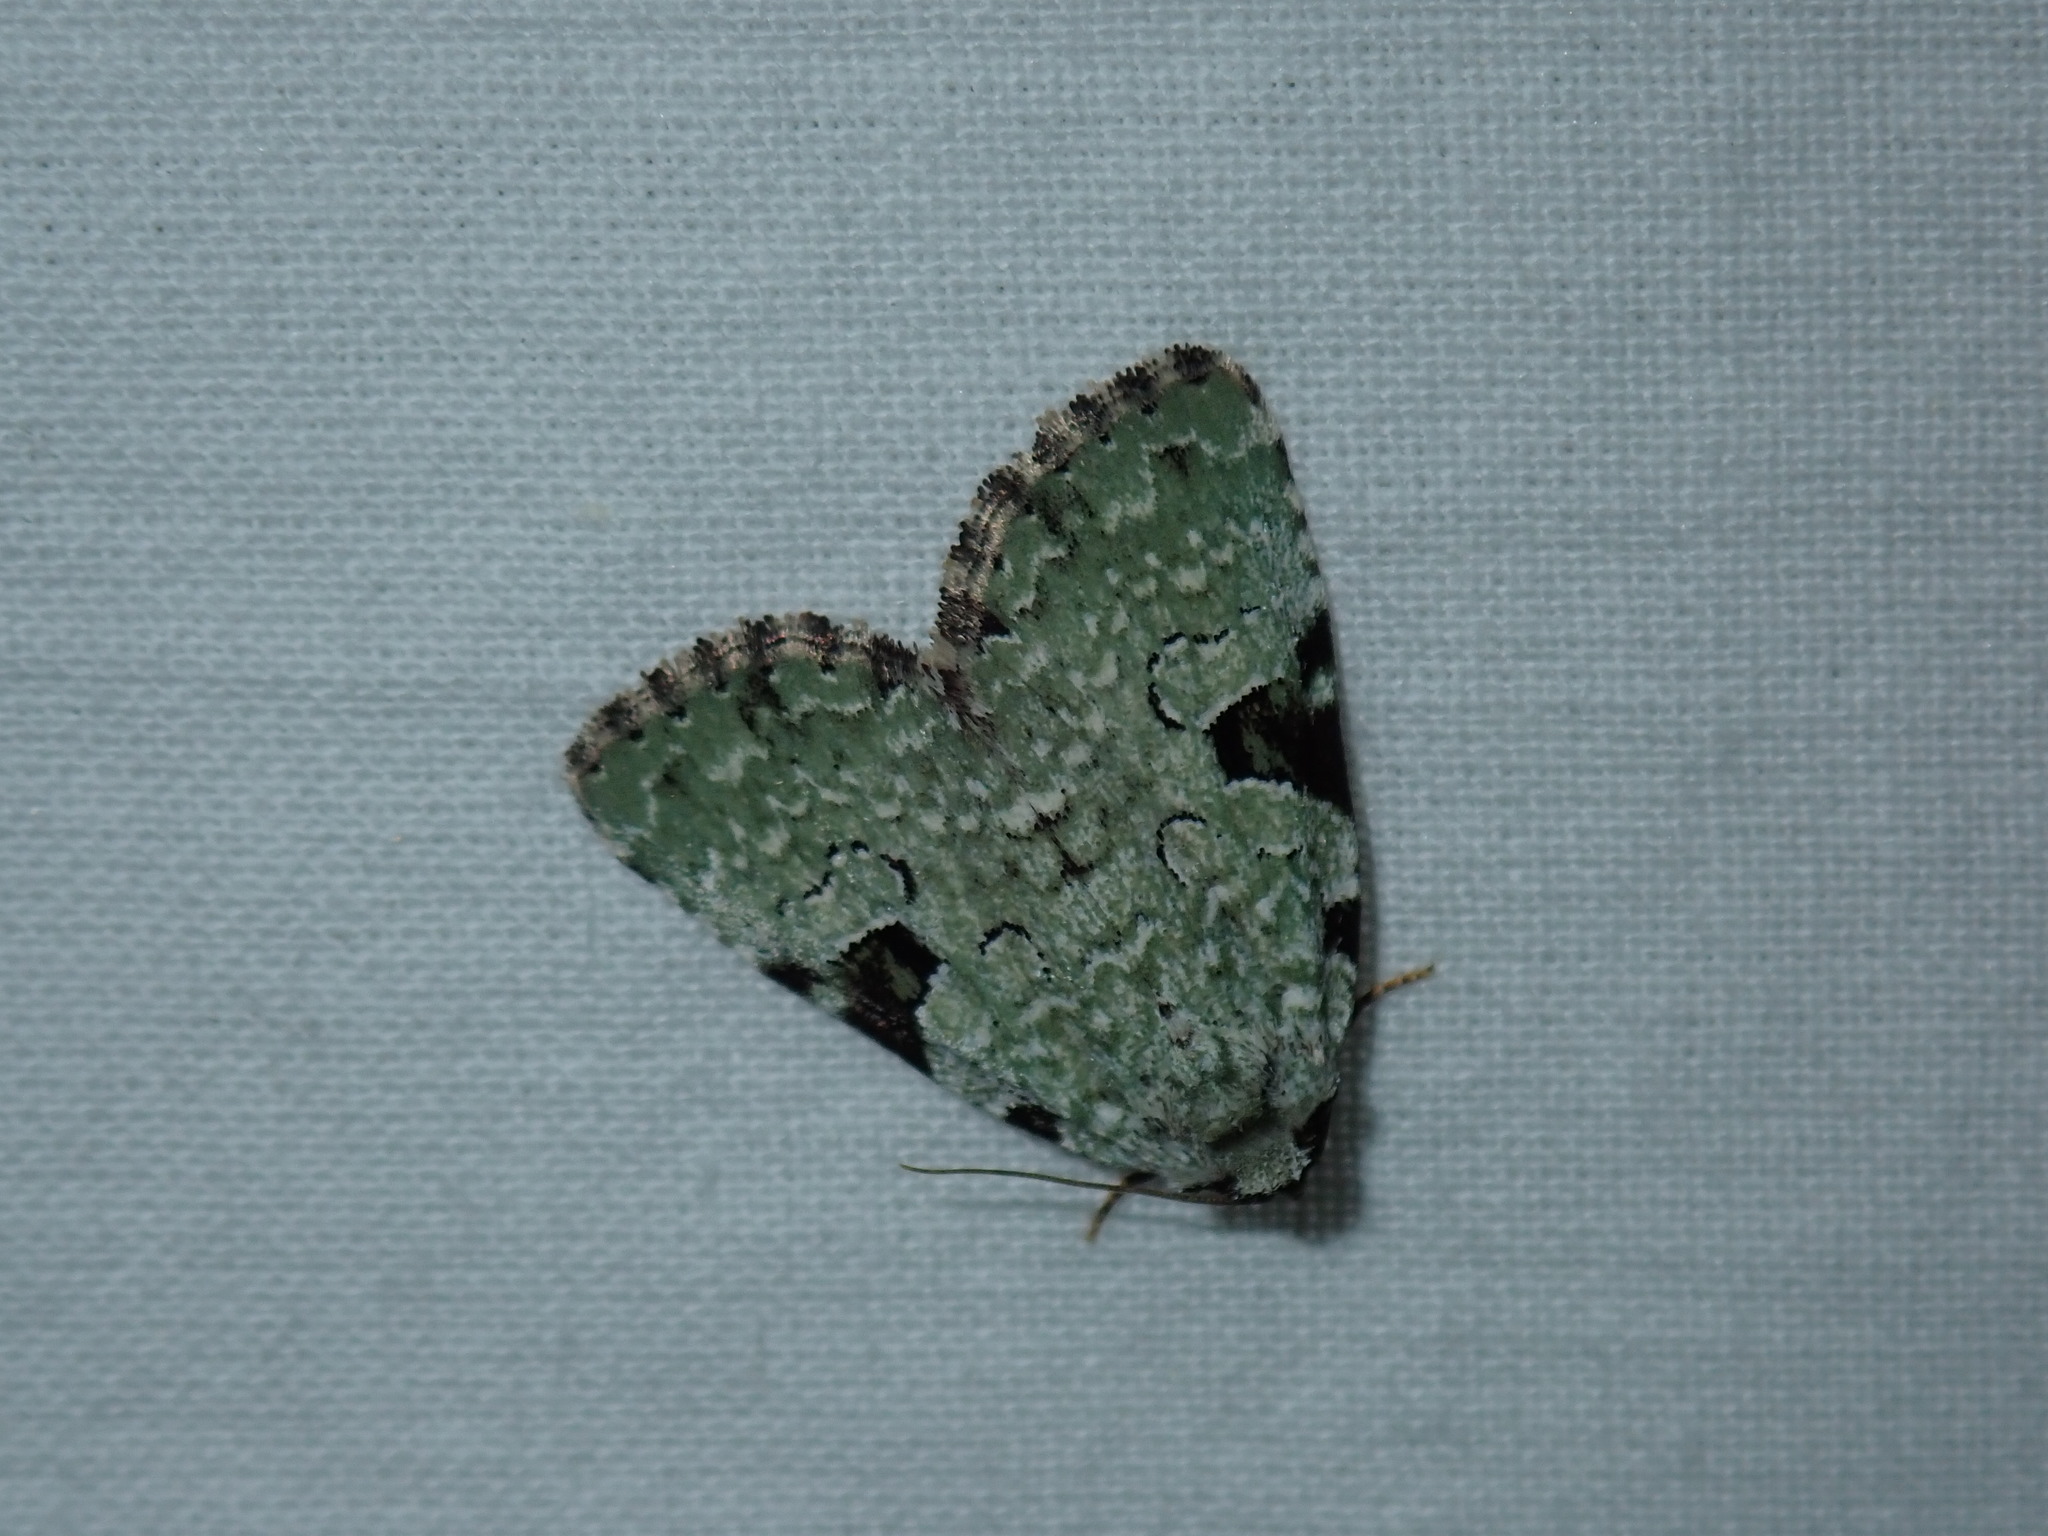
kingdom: Animalia
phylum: Arthropoda
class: Insecta
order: Lepidoptera
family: Noctuidae
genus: Leuconycta
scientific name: Leuconycta diphteroides
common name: Green leuconycta moth
